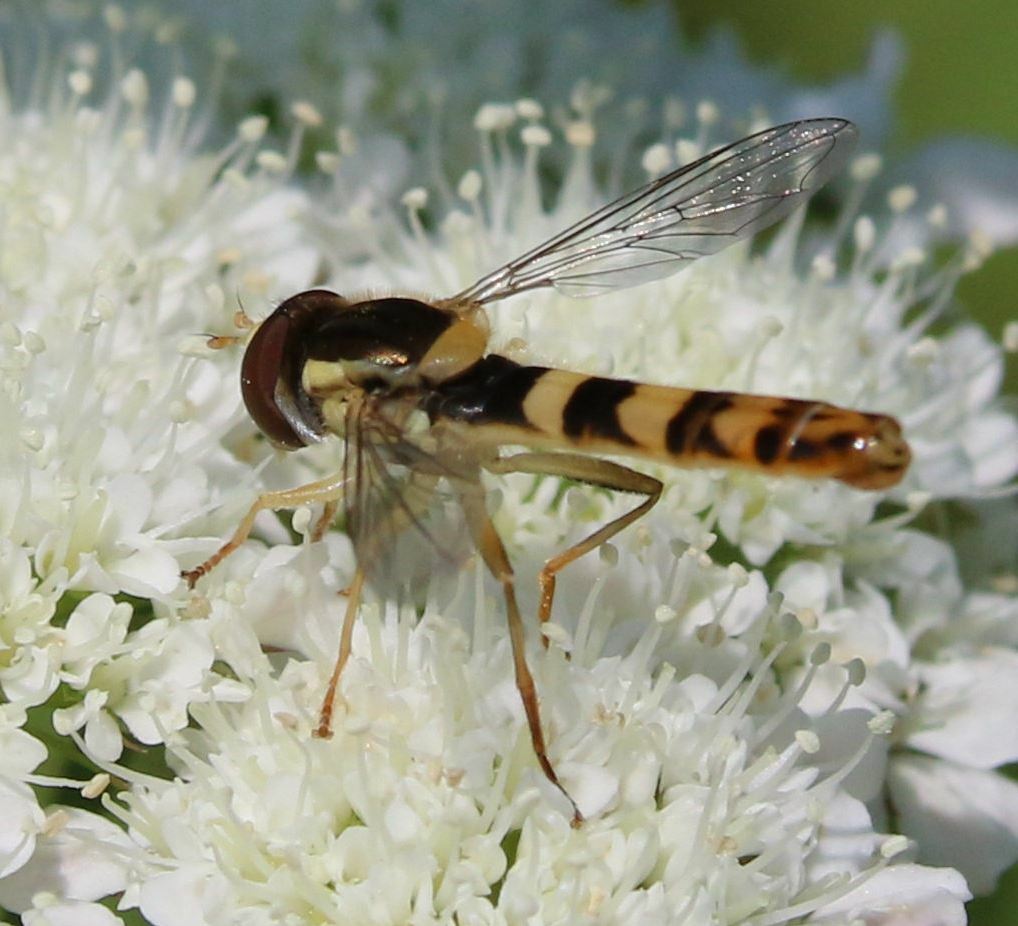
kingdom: Animalia
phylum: Arthropoda
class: Insecta
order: Diptera
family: Syrphidae
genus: Sphaerophoria
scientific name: Sphaerophoria scripta
